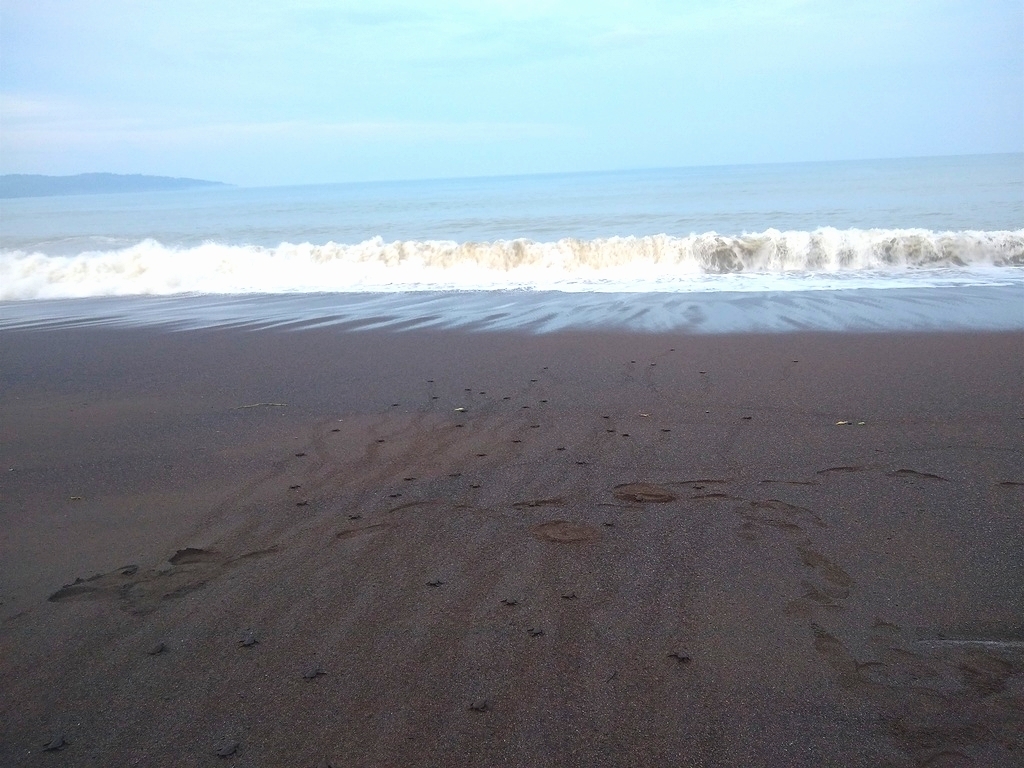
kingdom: Animalia
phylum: Chordata
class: Testudines
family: Cheloniidae
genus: Lepidochelys
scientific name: Lepidochelys olivacea
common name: Olive ridley
